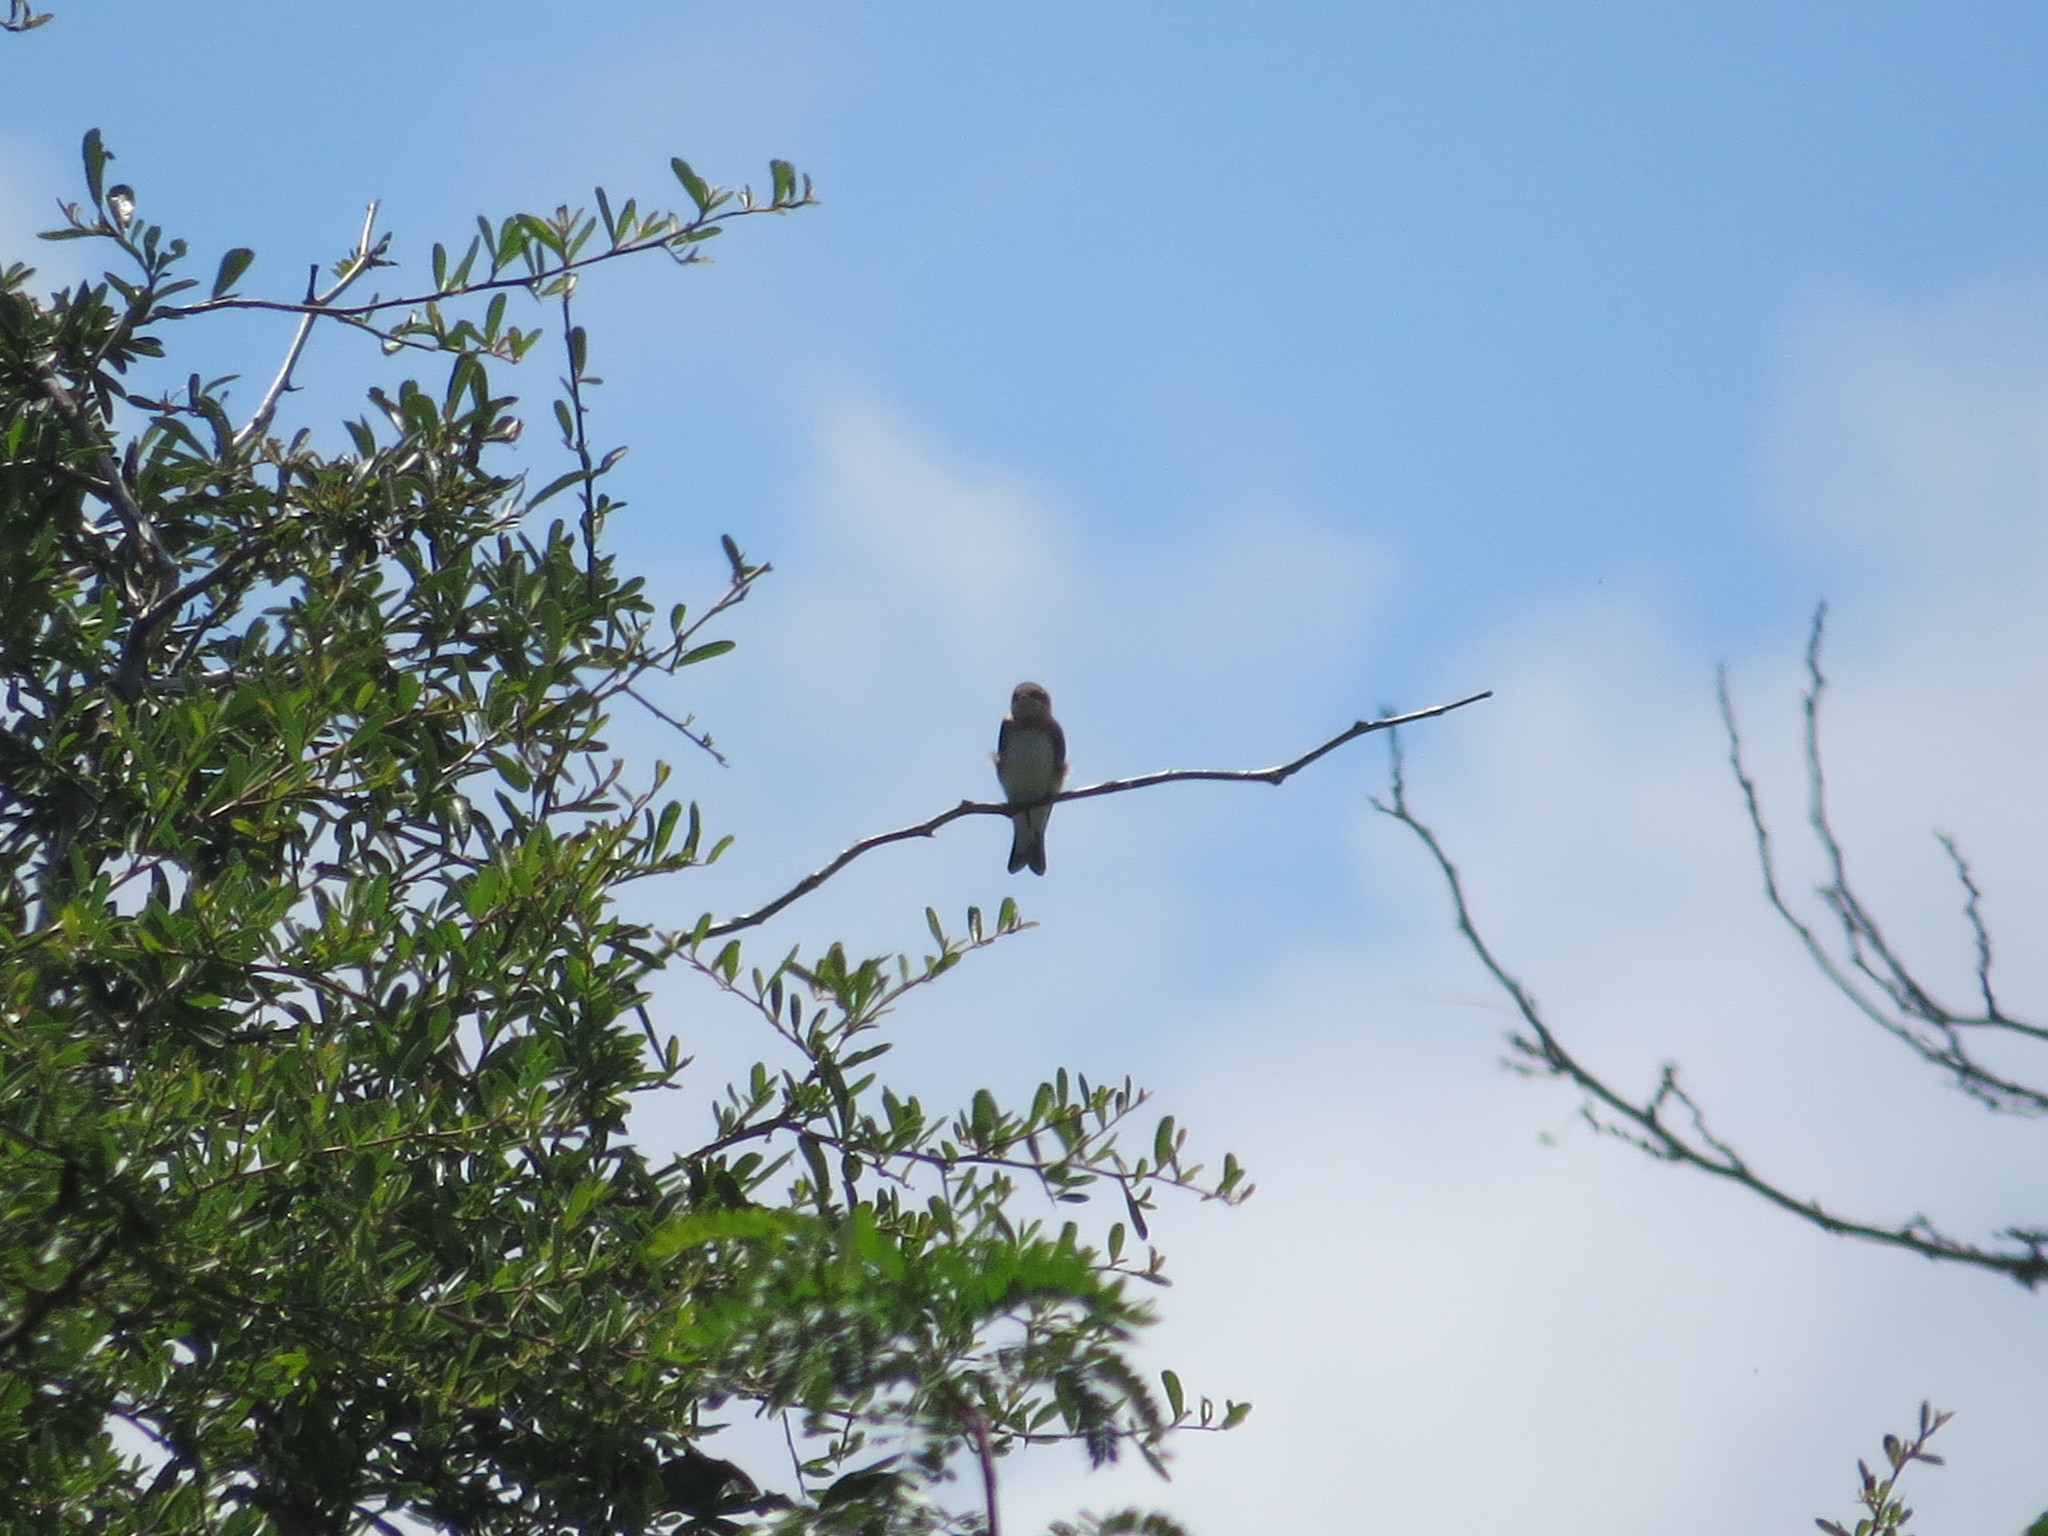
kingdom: Animalia
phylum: Chordata
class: Aves
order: Passeriformes
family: Hirundinidae
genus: Riparia
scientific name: Riparia riparia
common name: Sand martin
